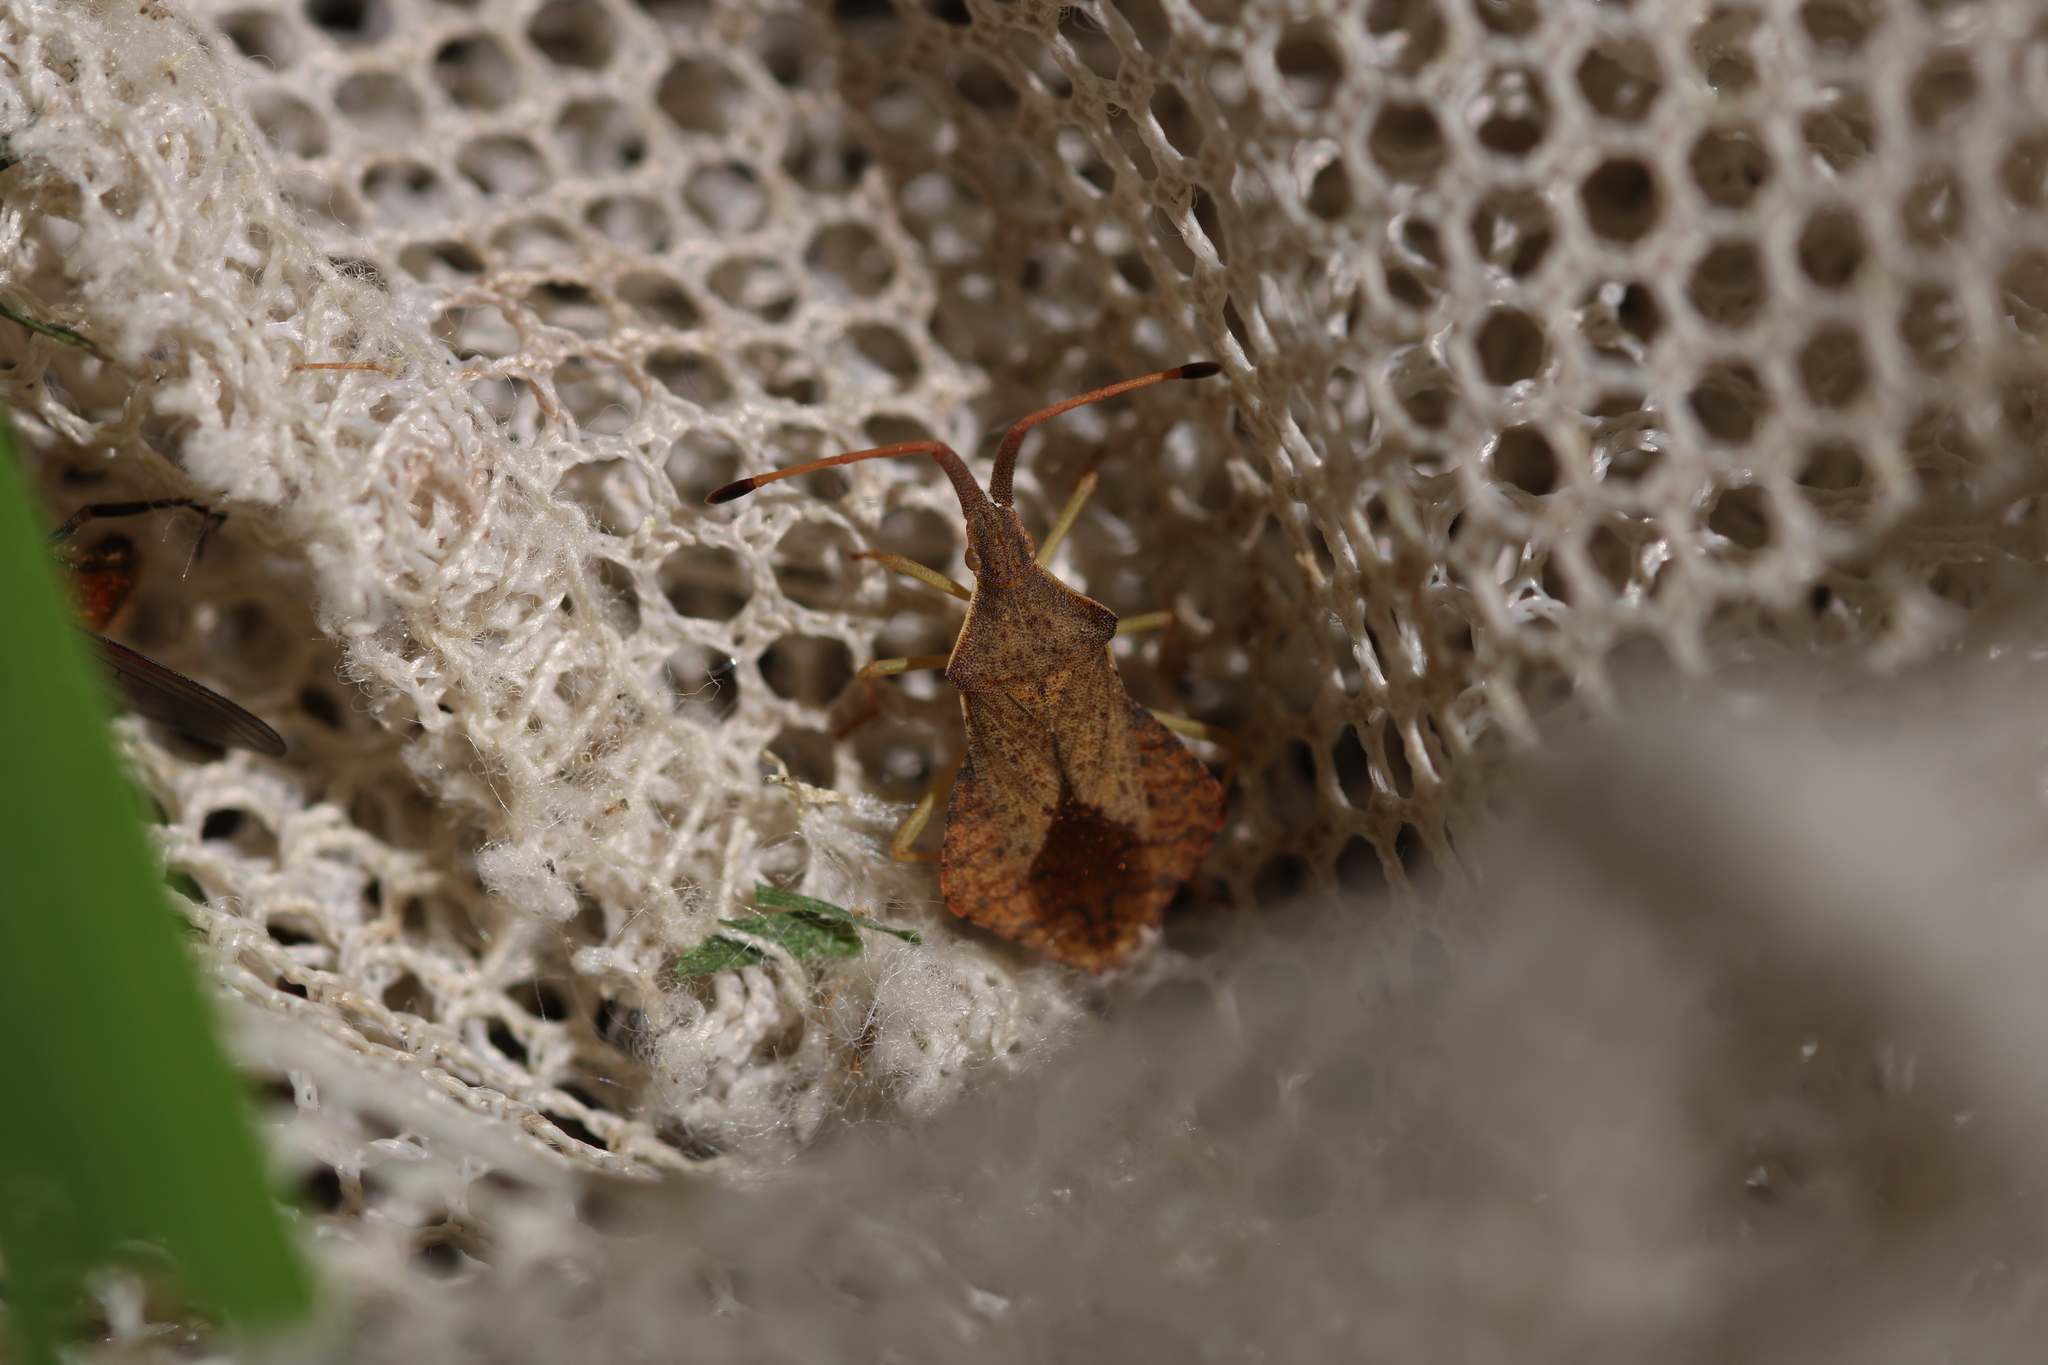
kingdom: Animalia
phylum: Arthropoda
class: Insecta
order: Hemiptera
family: Coreidae
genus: Syromastus
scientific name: Syromastus rhombeus
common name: Rhombic leatherbug
